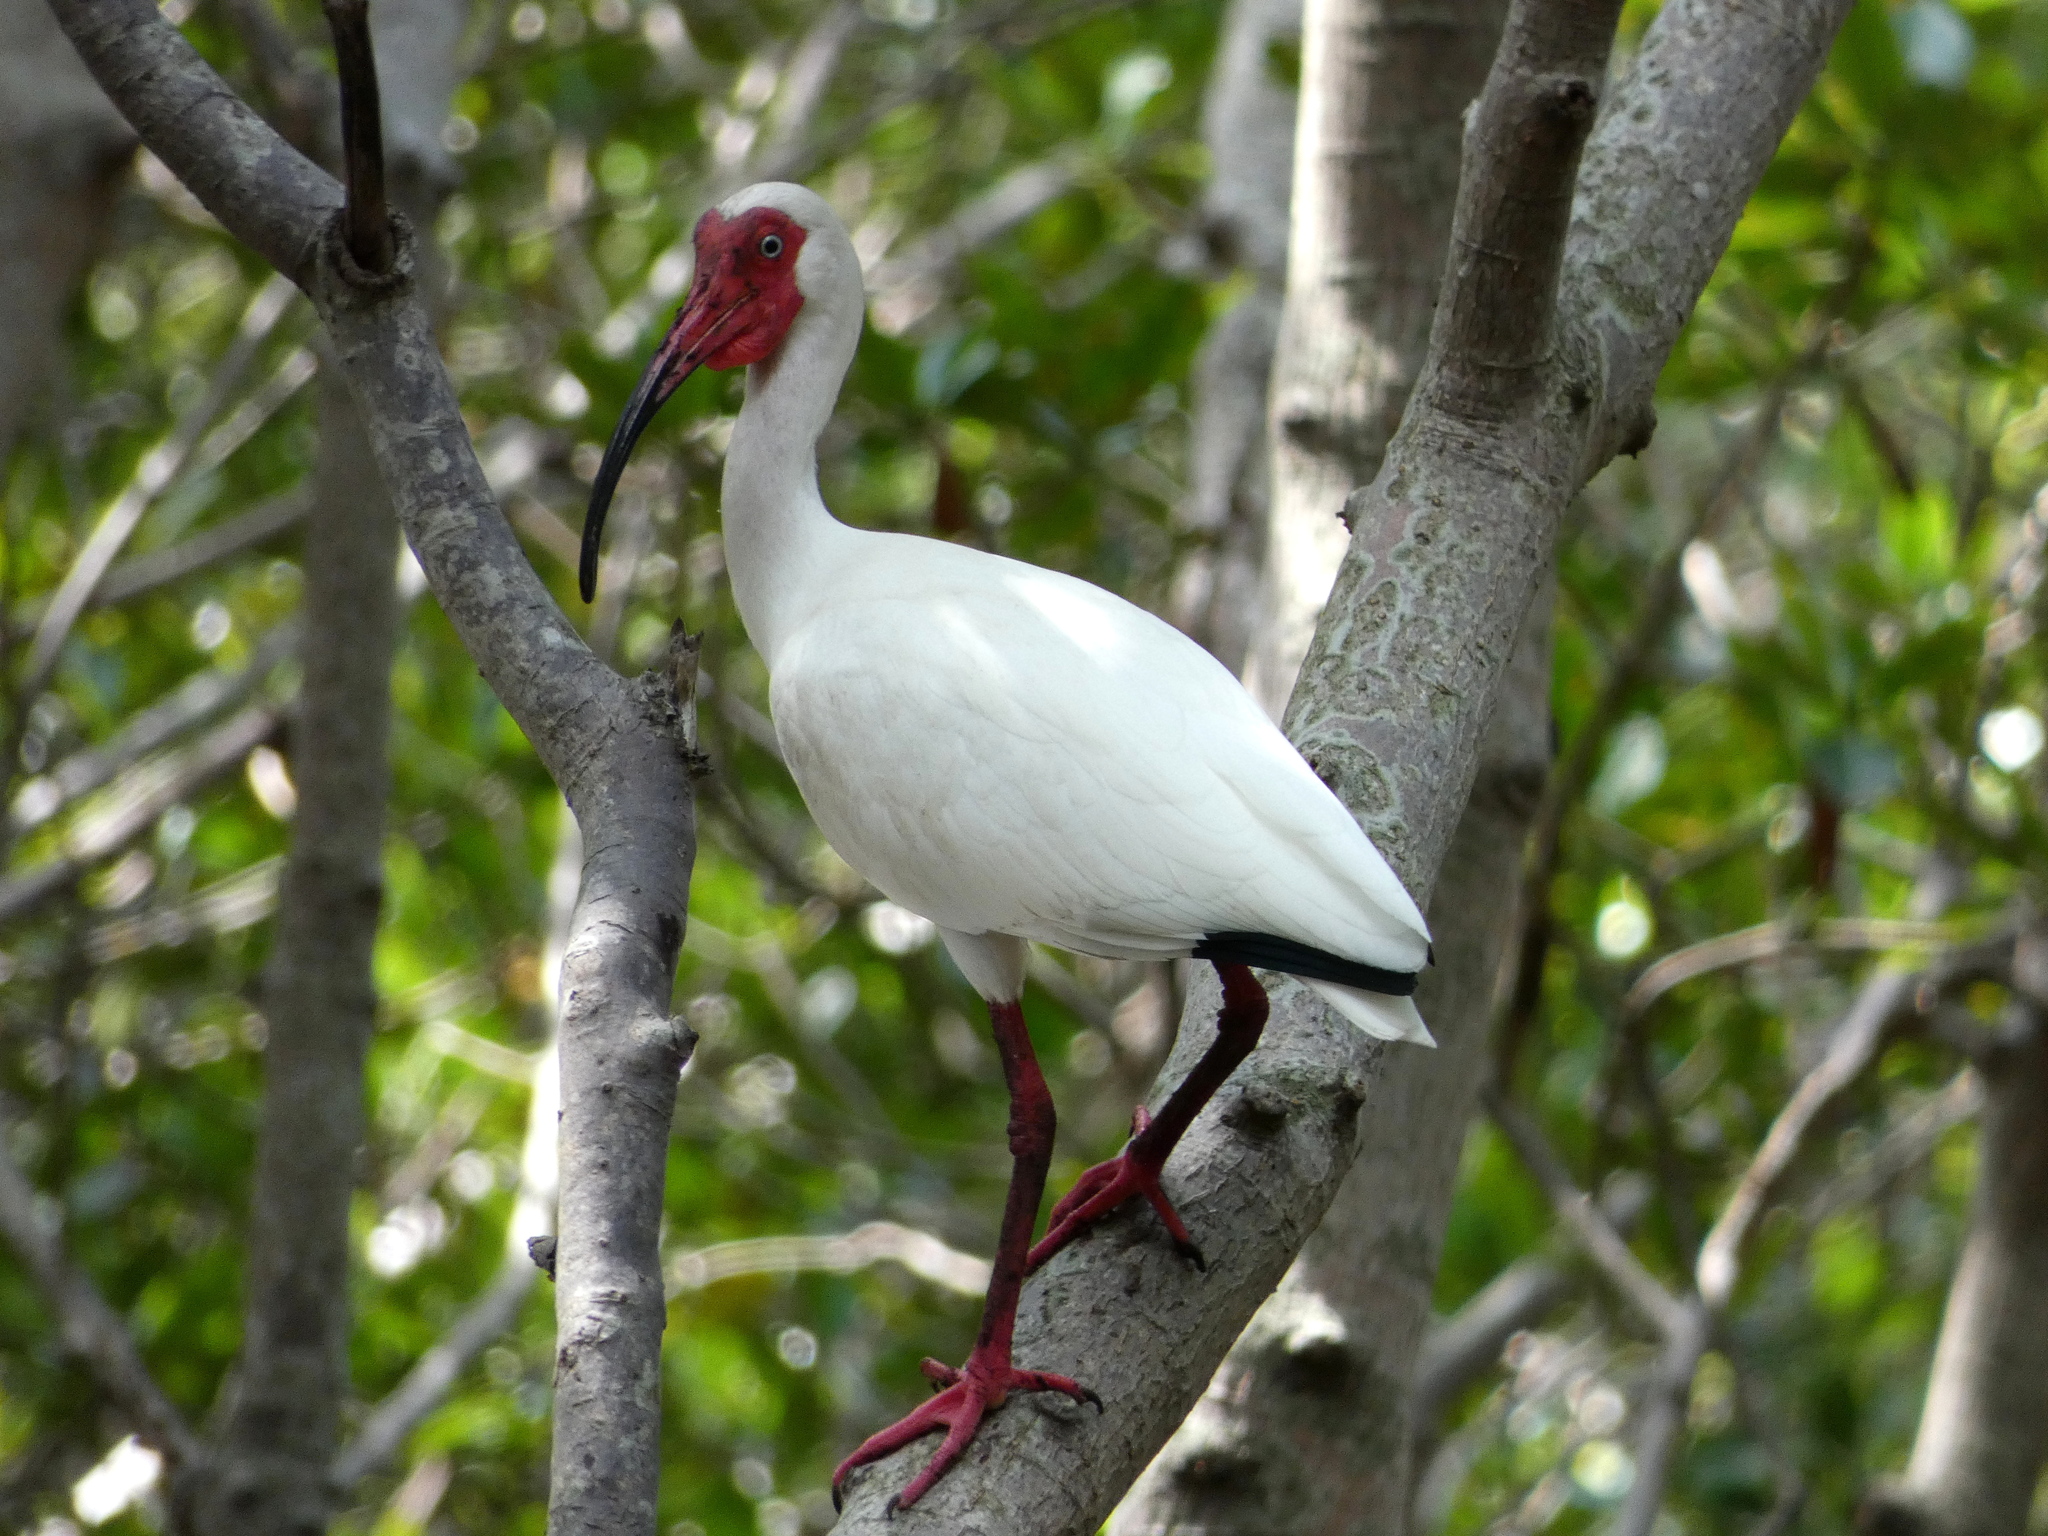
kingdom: Animalia
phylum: Chordata
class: Aves
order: Pelecaniformes
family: Threskiornithidae
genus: Eudocimus
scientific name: Eudocimus albus
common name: White ibis
